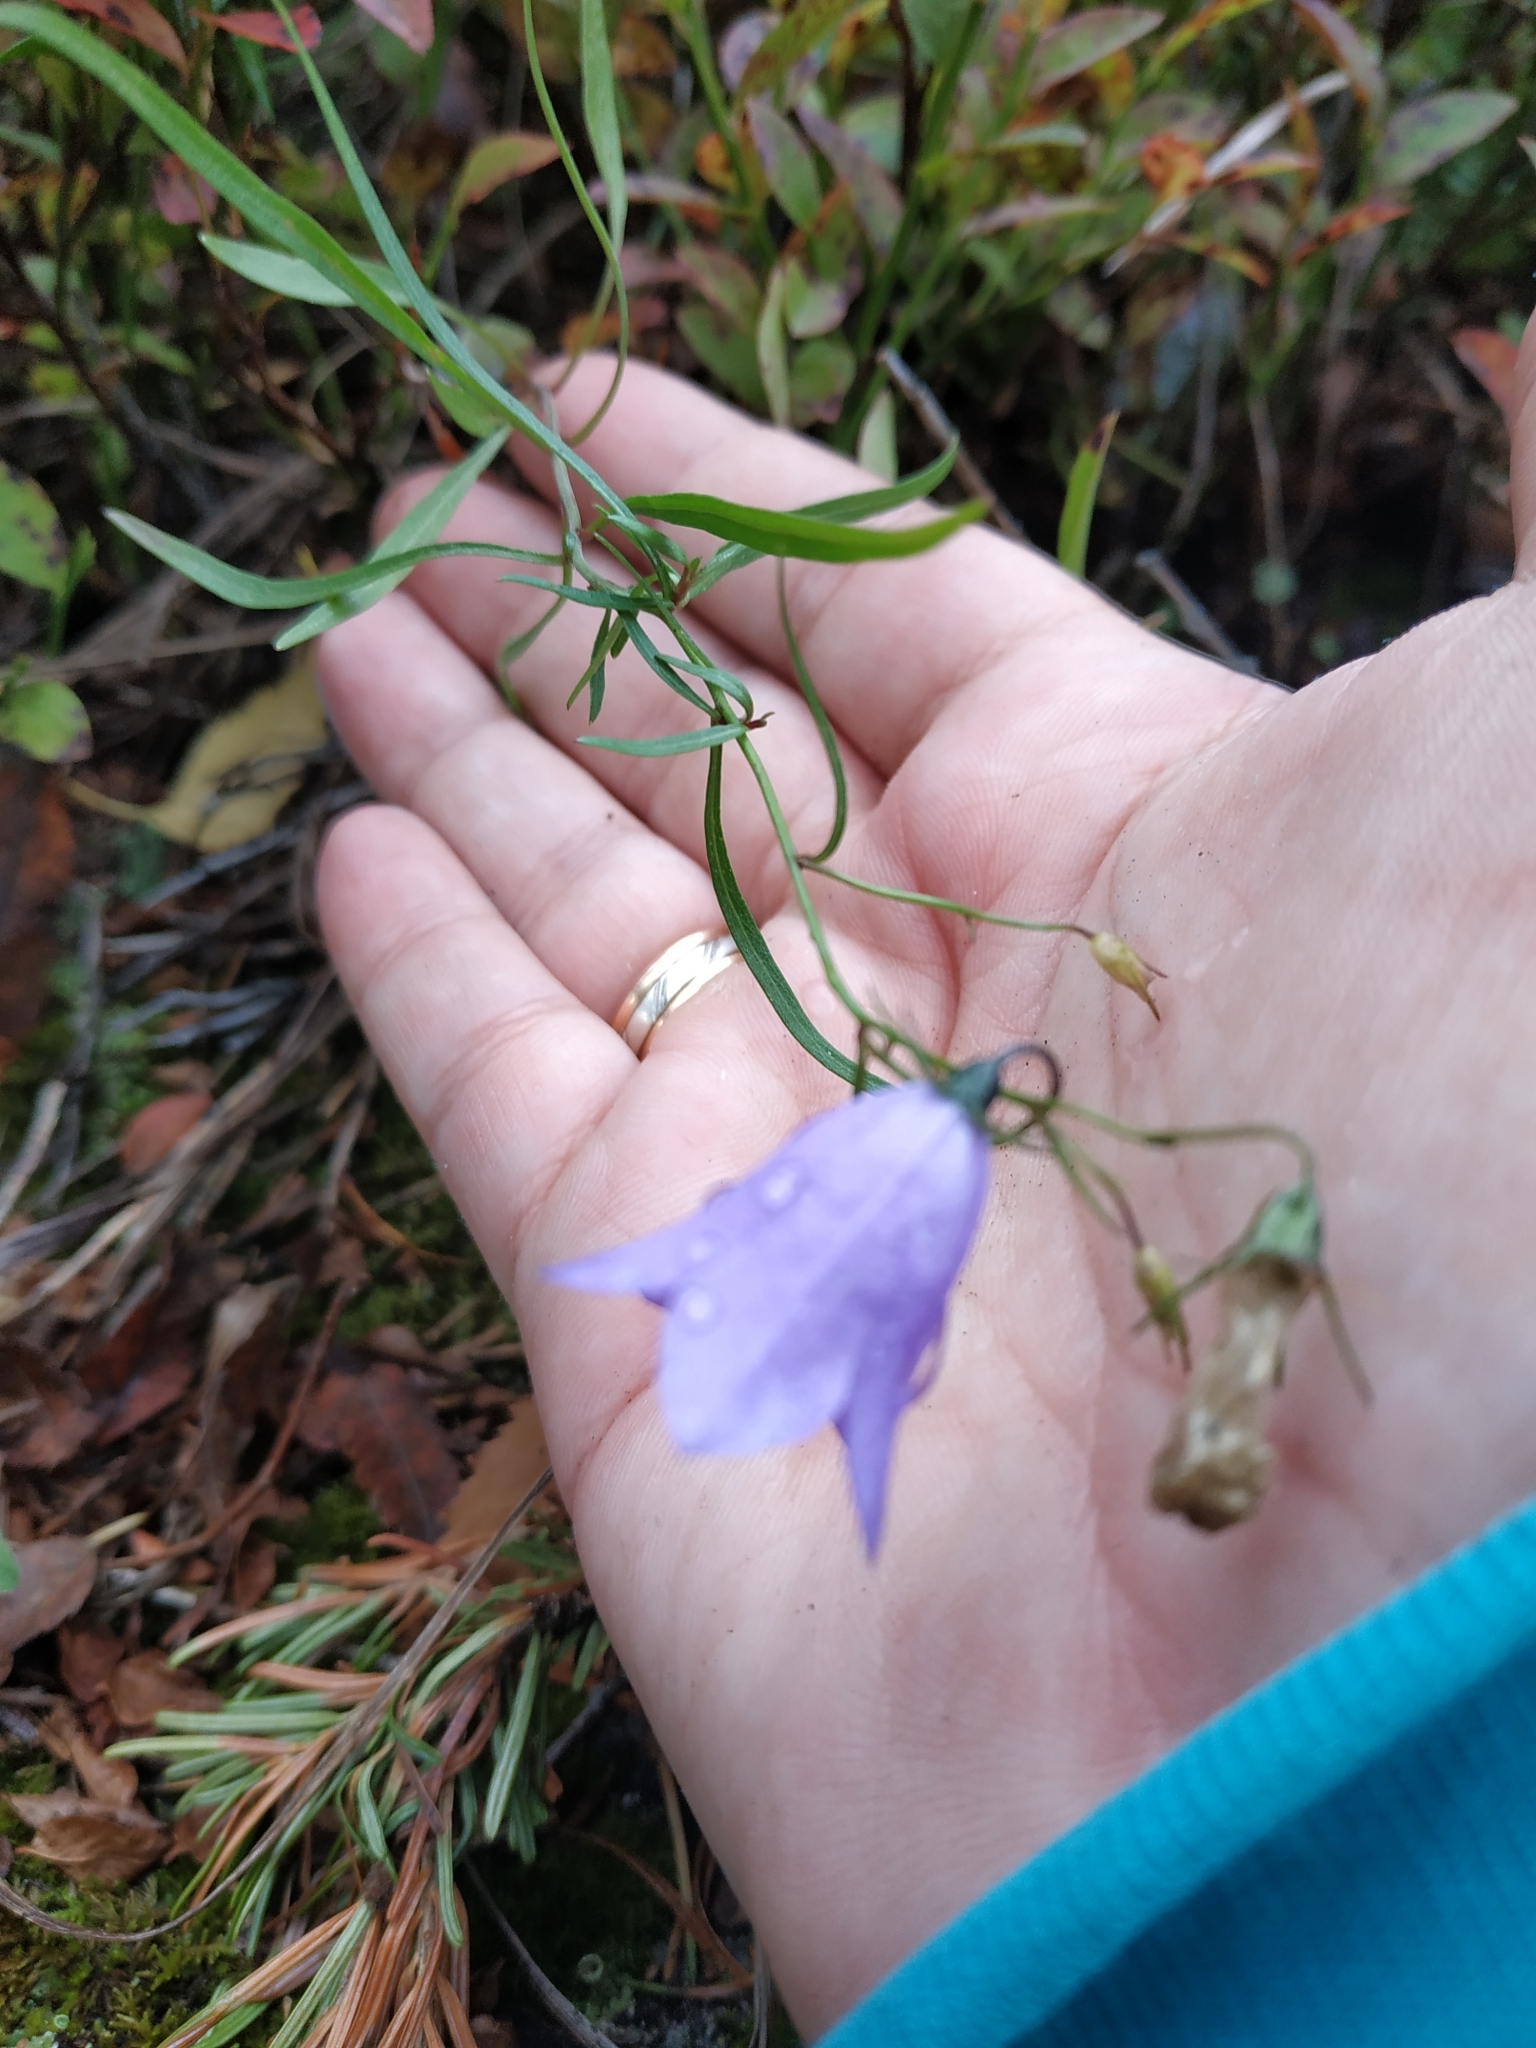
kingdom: Plantae
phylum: Tracheophyta
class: Magnoliopsida
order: Asterales
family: Campanulaceae
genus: Campanula
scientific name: Campanula rotundifolia
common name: Harebell
